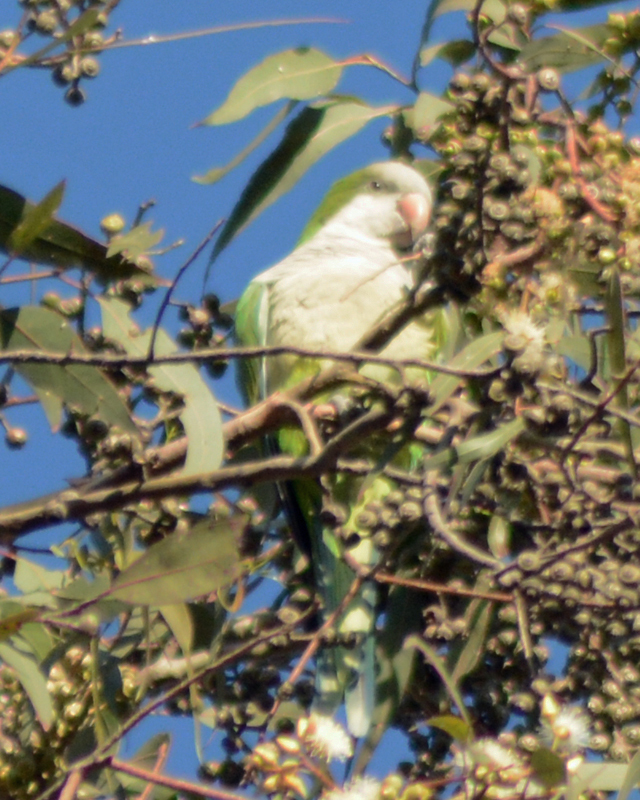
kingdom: Animalia
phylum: Chordata
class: Aves
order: Psittaciformes
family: Psittacidae
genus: Myiopsitta
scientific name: Myiopsitta monachus
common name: Monk parakeet
